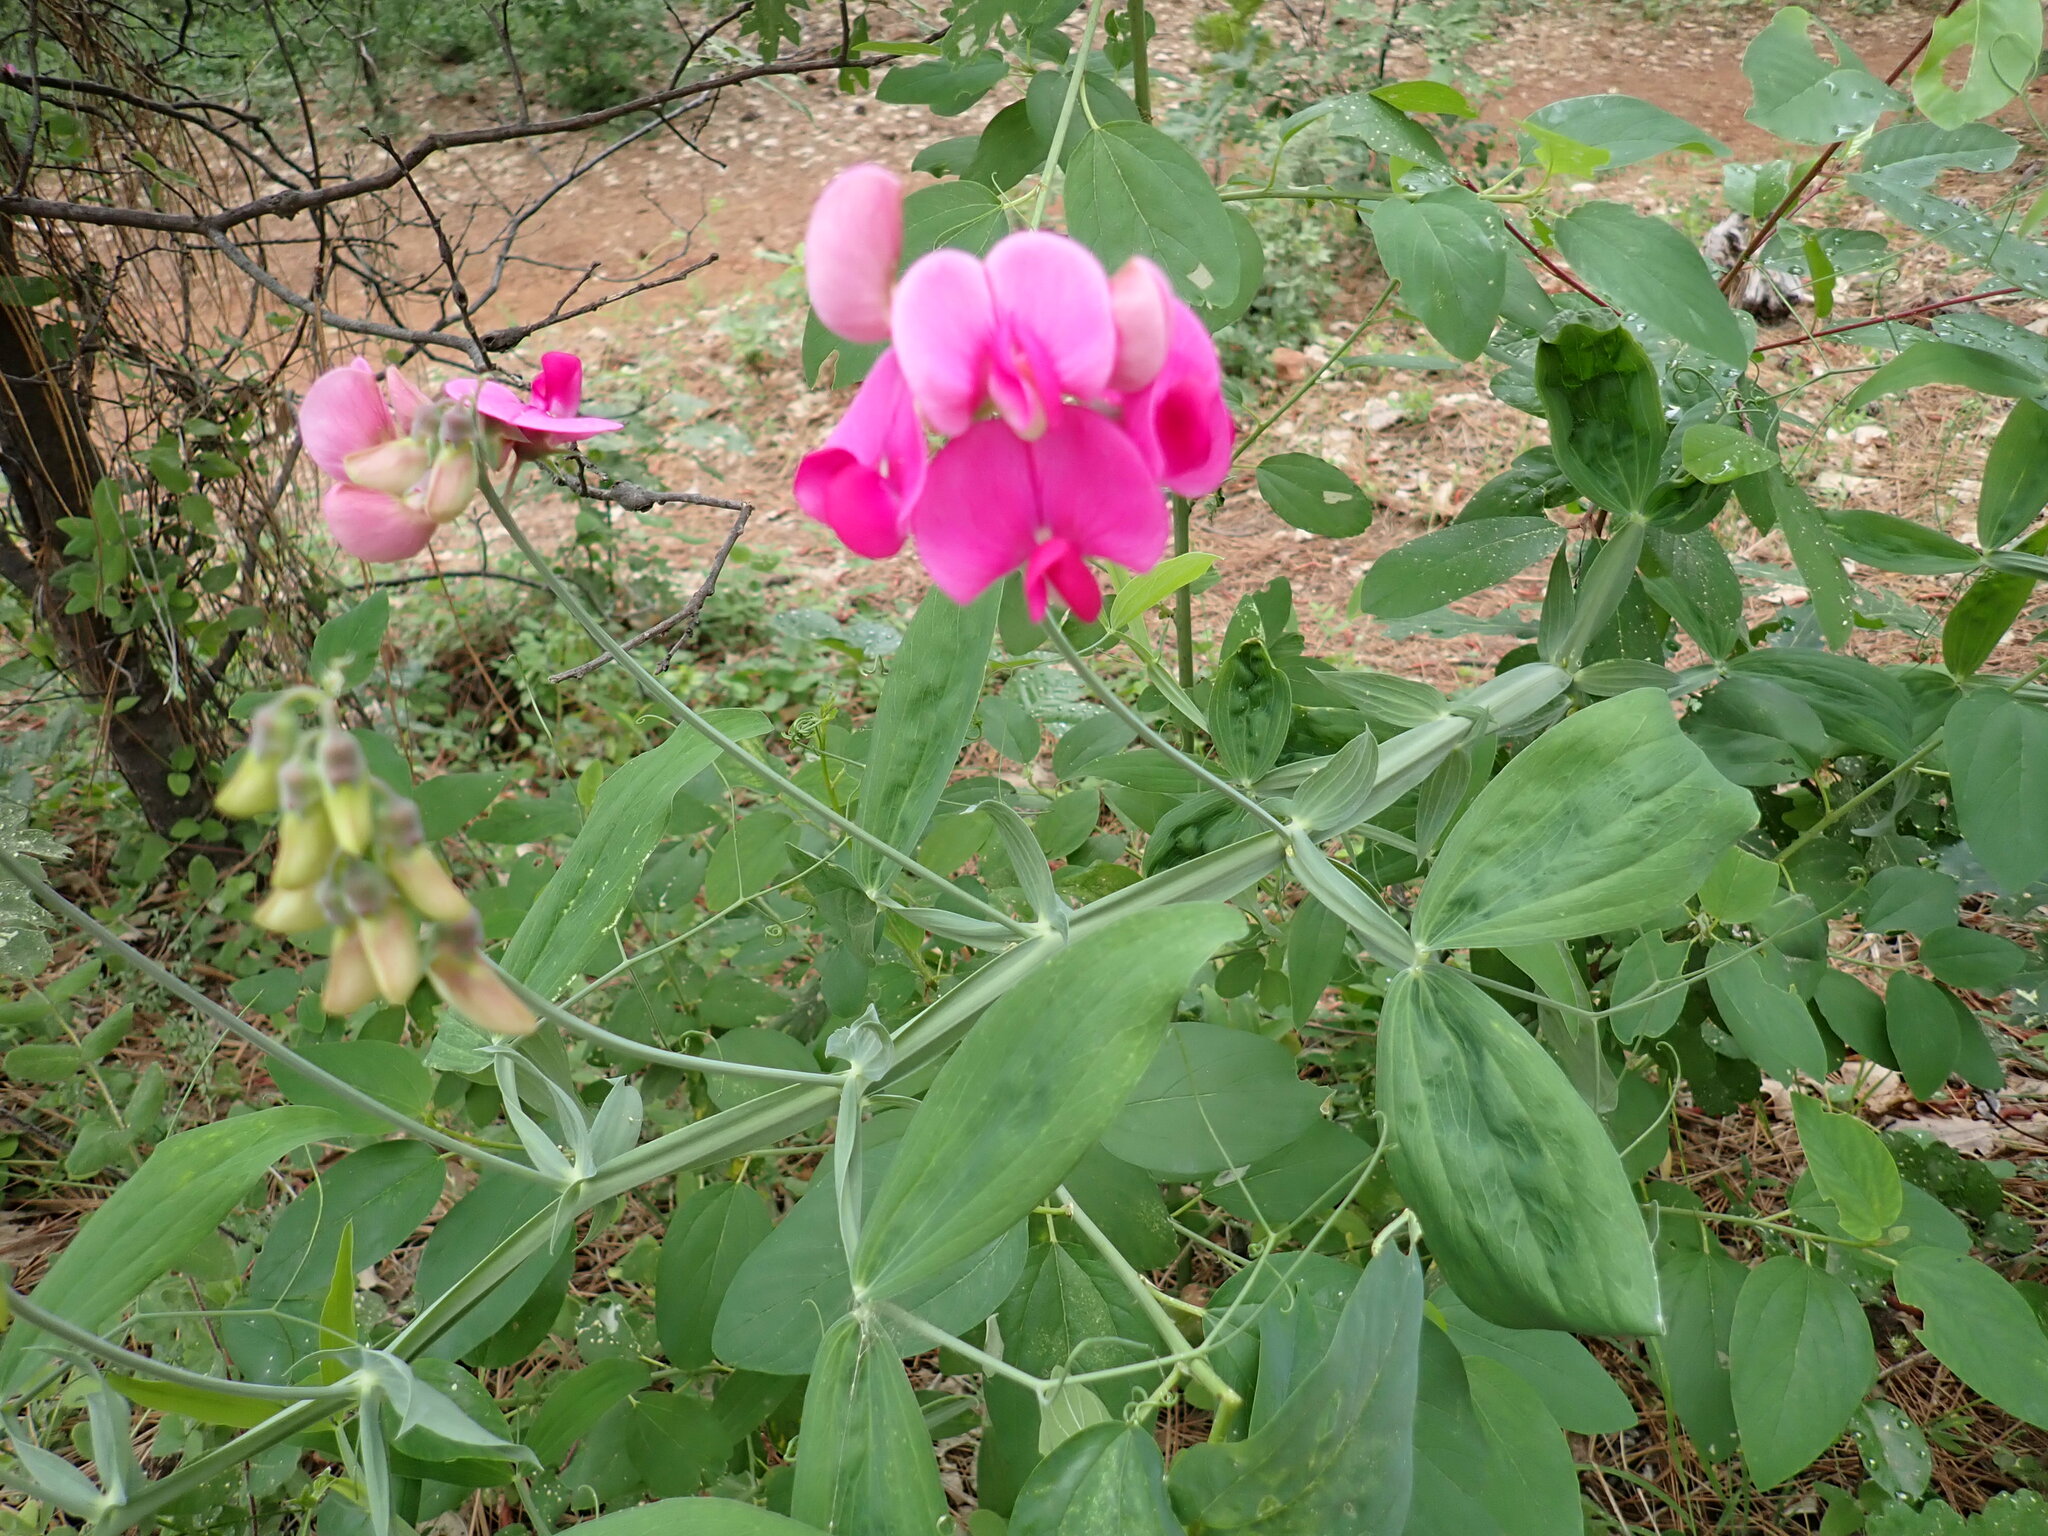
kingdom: Plantae
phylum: Tracheophyta
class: Magnoliopsida
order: Fabales
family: Fabaceae
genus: Lathyrus
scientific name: Lathyrus latifolius
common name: Perennial pea
